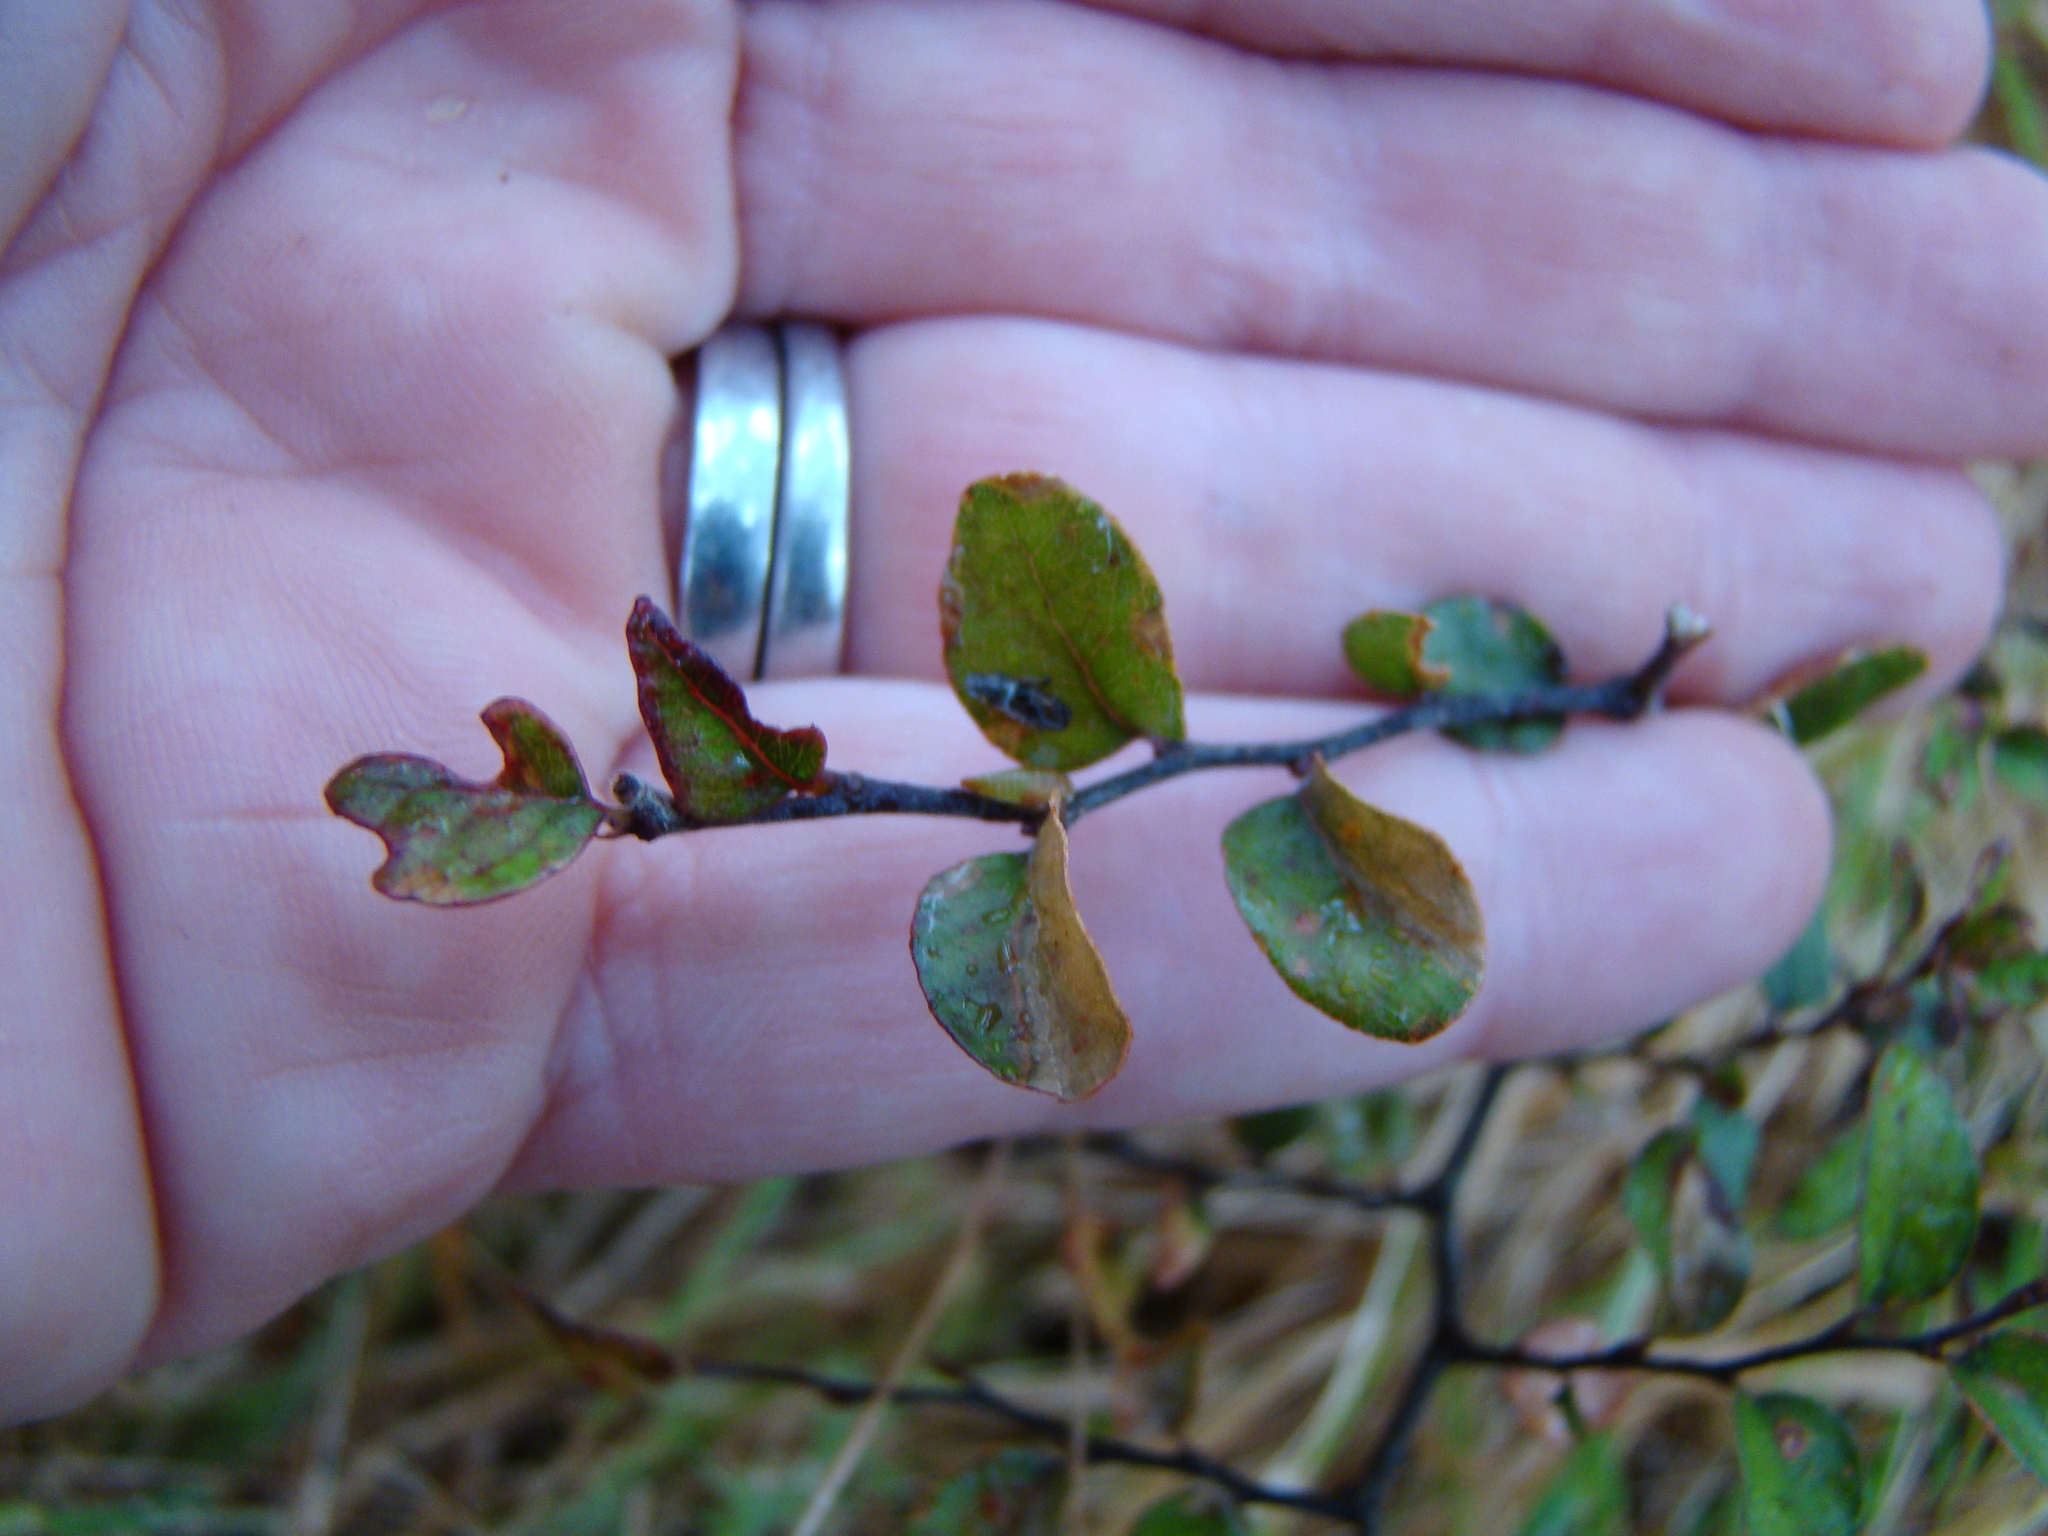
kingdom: Plantae
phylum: Tracheophyta
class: Magnoliopsida
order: Fagales
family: Nothofagaceae
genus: Nothofagus
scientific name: Nothofagus solandri
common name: Black beech
